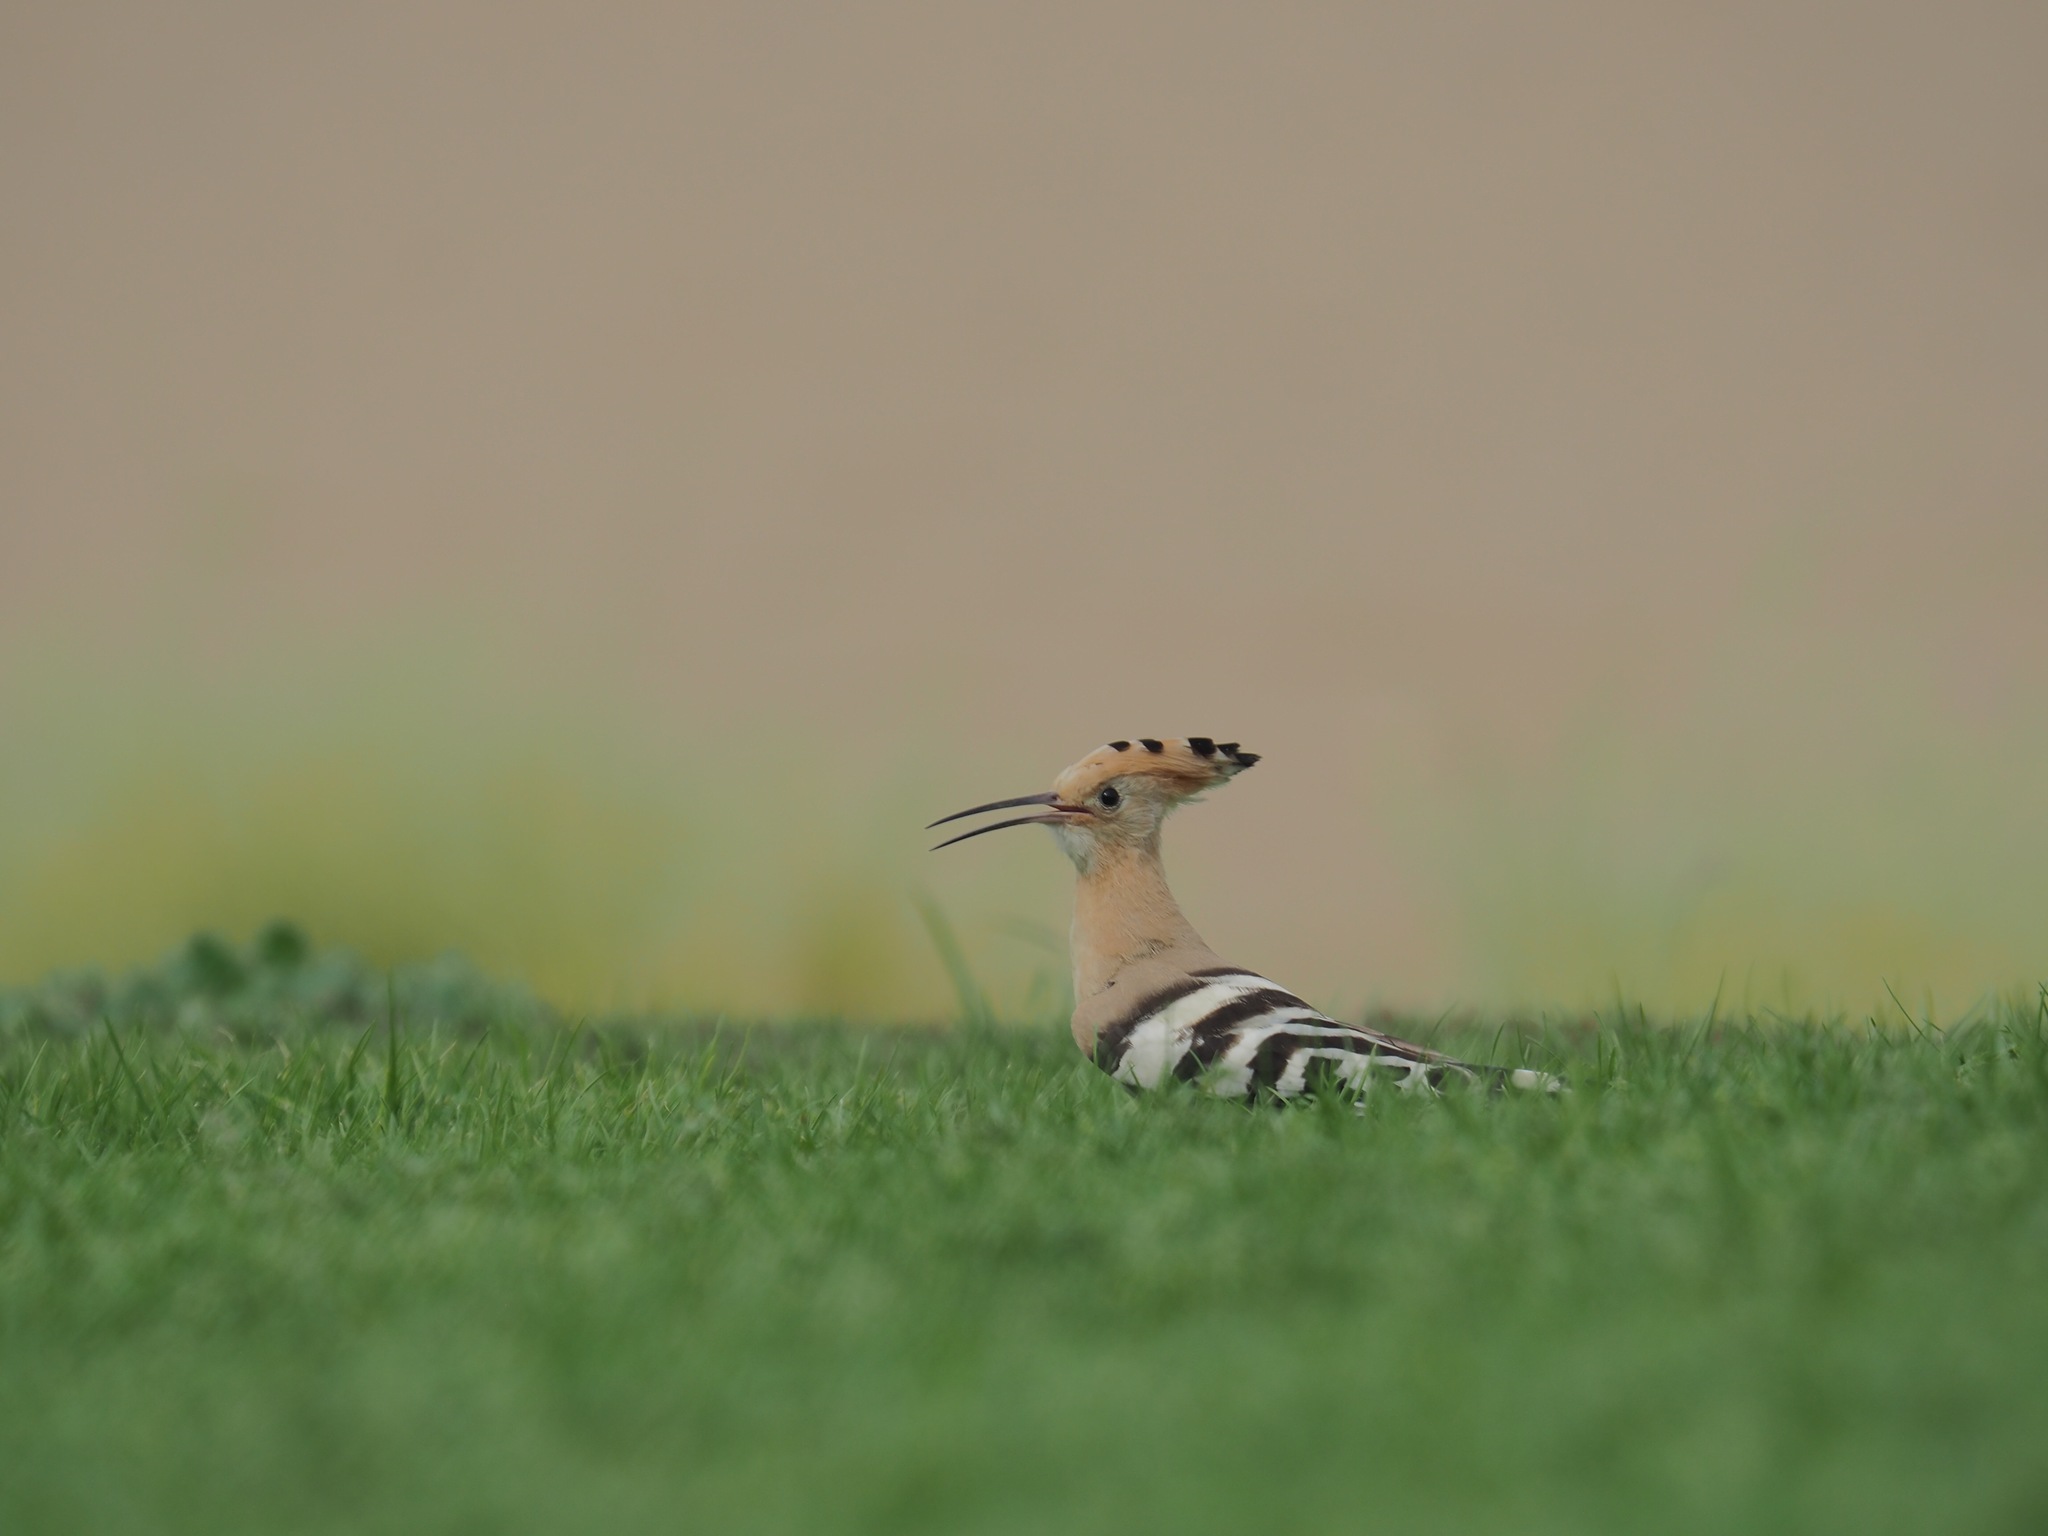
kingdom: Animalia
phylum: Chordata
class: Aves
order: Bucerotiformes
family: Upupidae
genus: Upupa
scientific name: Upupa epops
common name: Eurasian hoopoe
